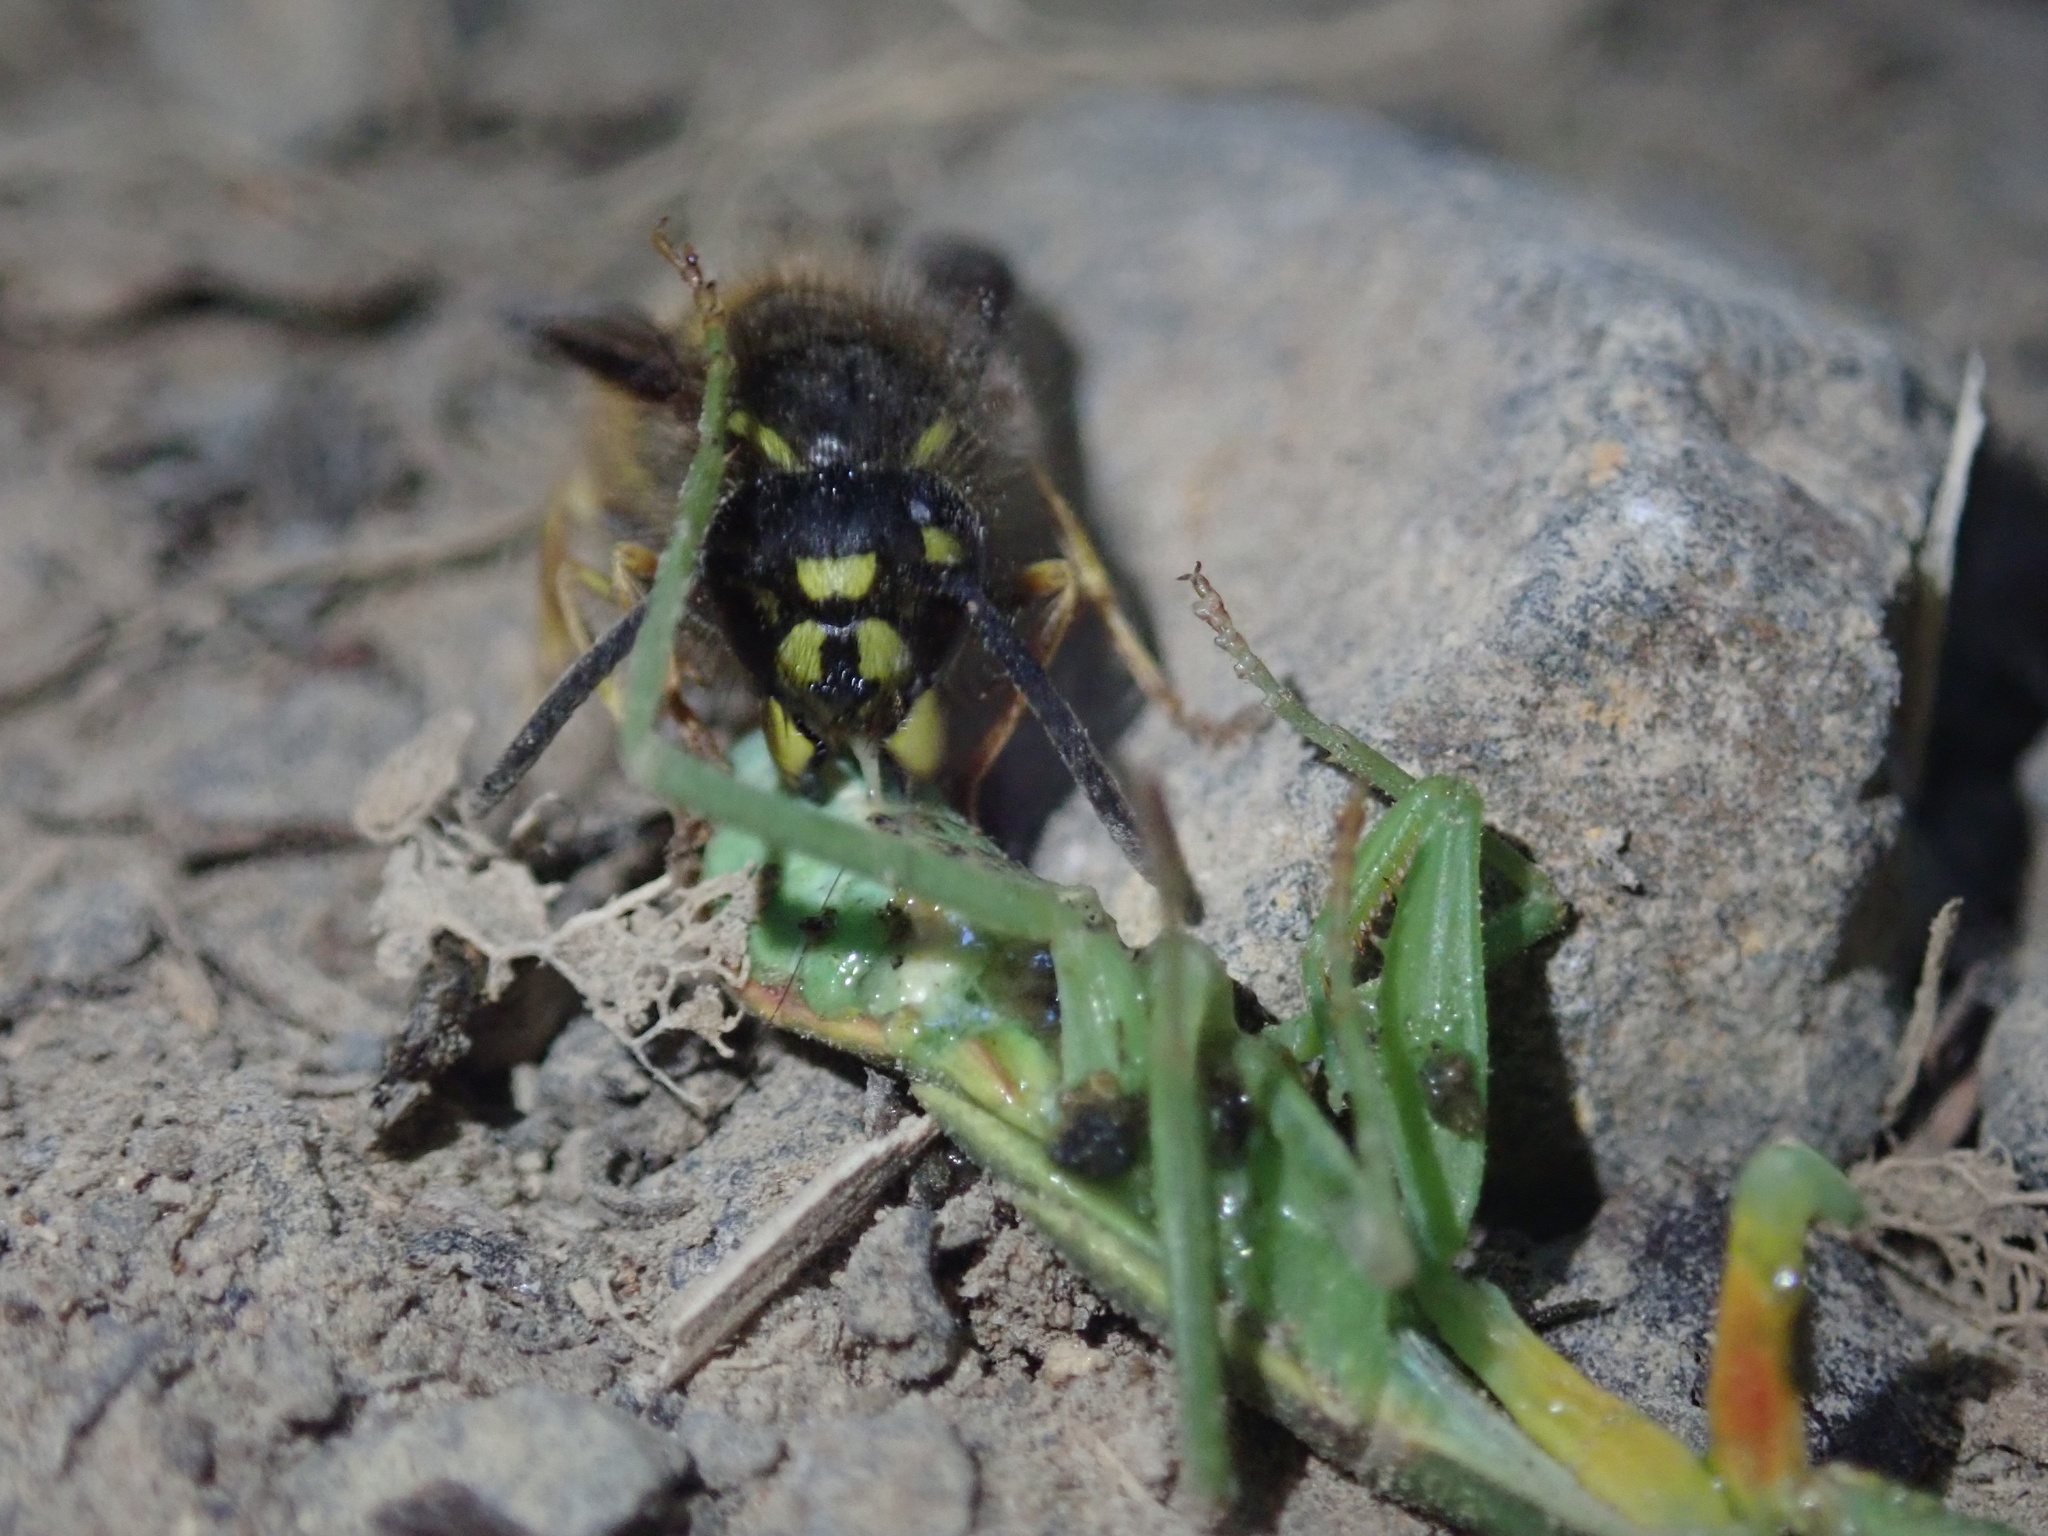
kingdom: Animalia
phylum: Arthropoda
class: Insecta
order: Hymenoptera
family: Vespidae
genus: Vespula
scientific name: Vespula vulgaris
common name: Common wasp
